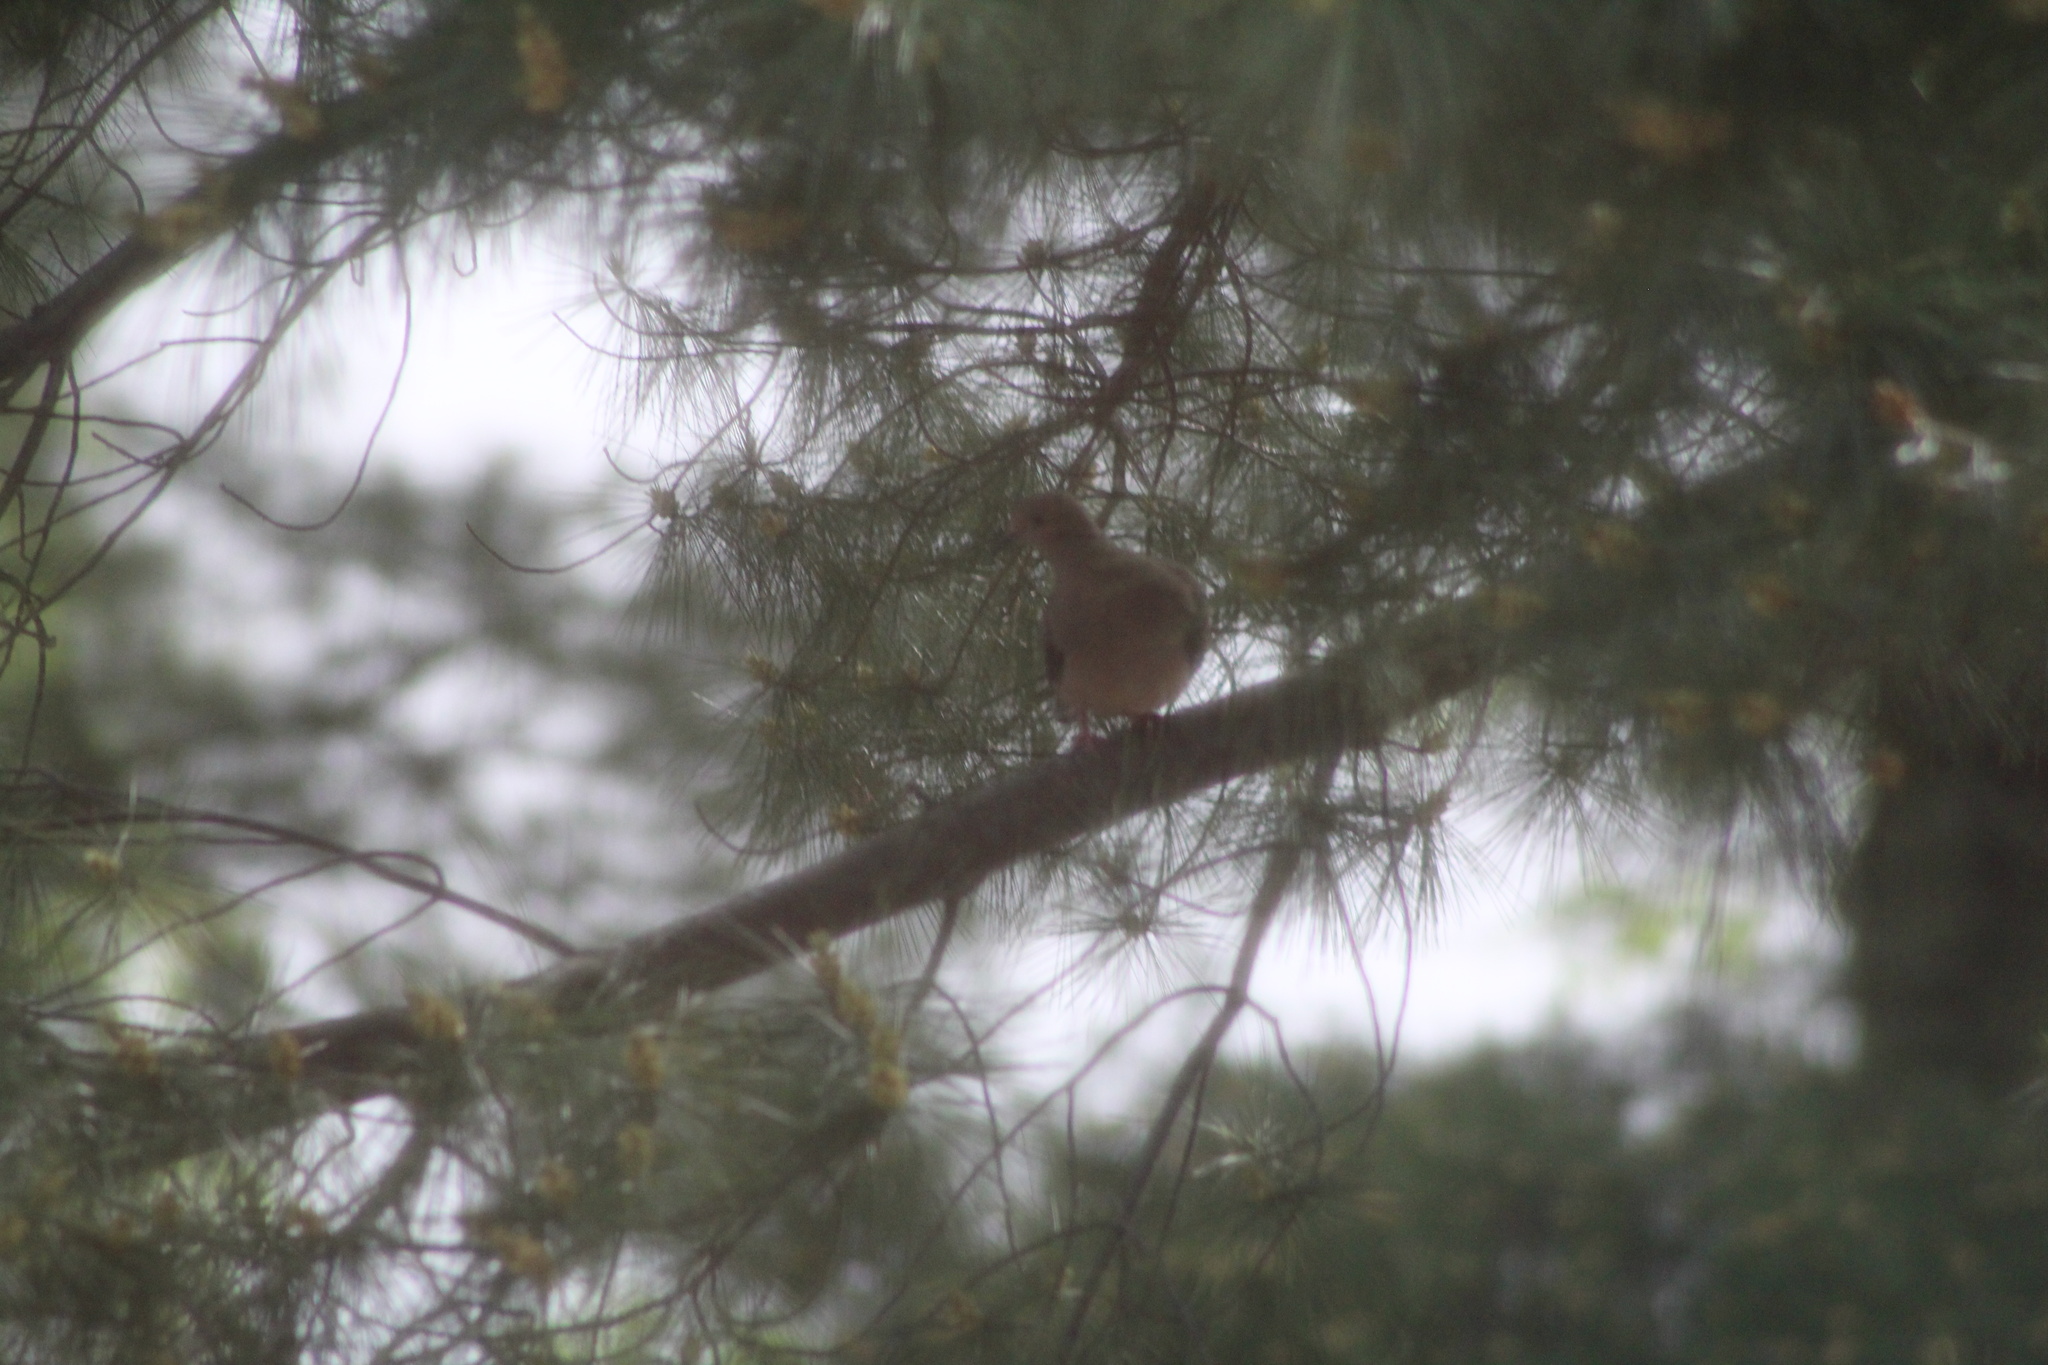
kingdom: Animalia
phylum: Chordata
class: Aves
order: Columbiformes
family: Columbidae
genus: Zenaida
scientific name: Zenaida macroura
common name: Mourning dove
